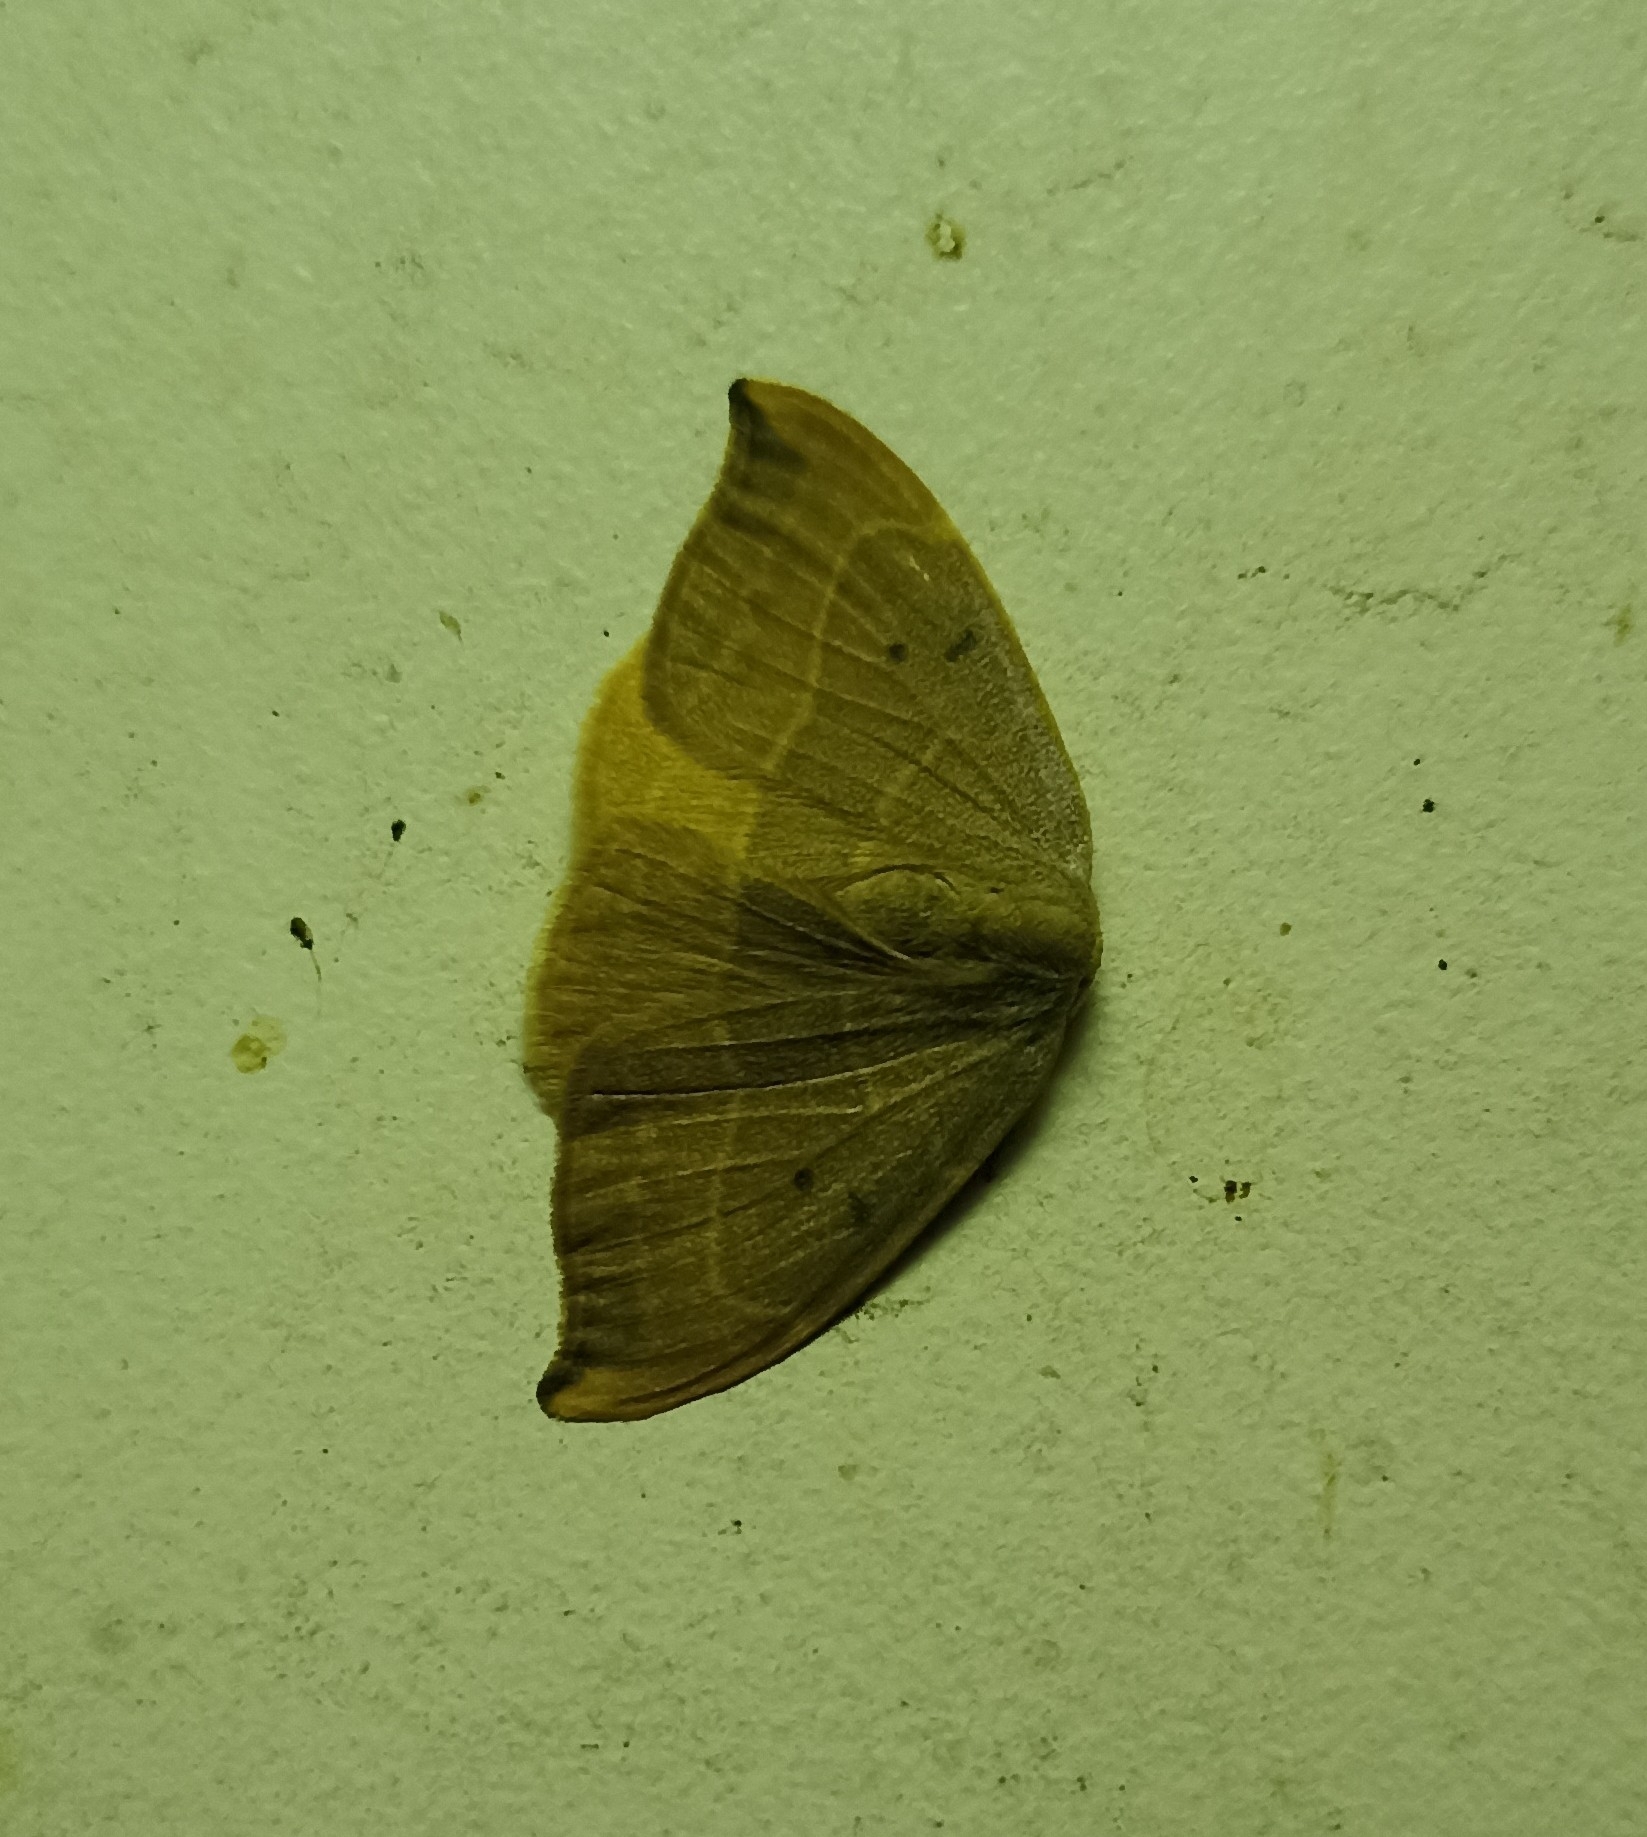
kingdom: Animalia
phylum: Arthropoda
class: Insecta
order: Lepidoptera
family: Drepanidae
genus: Watsonalla
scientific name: Watsonalla binaria
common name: Oak hook-tip
